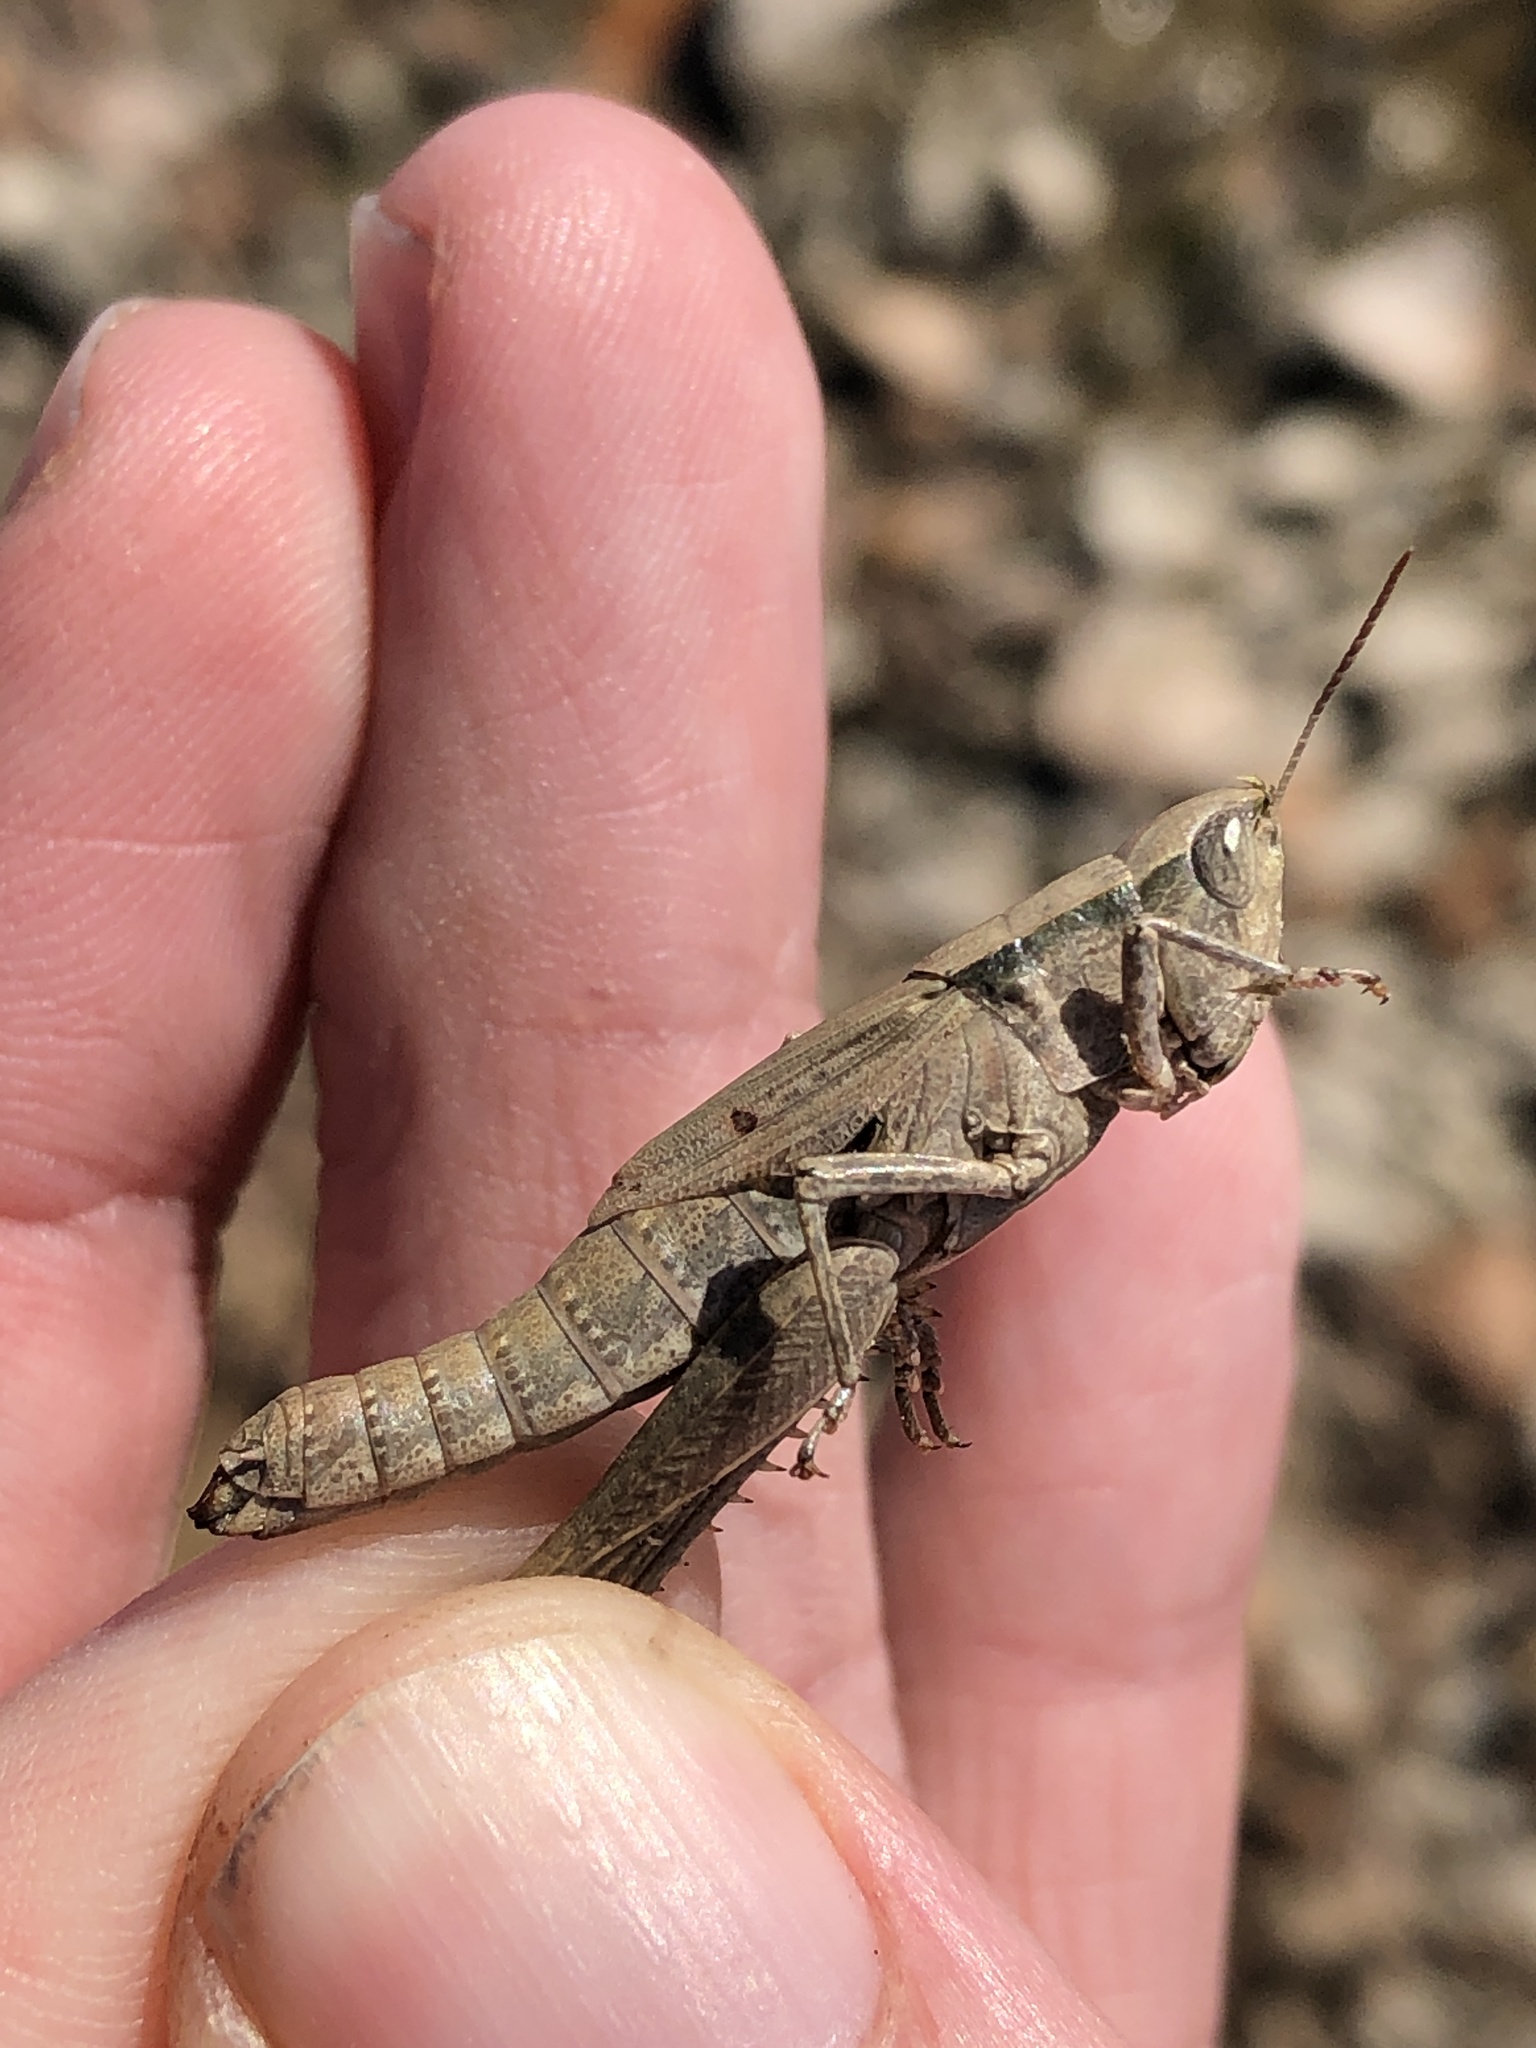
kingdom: Animalia
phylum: Arthropoda
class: Insecta
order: Orthoptera
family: Acrididae
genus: Dichromorpha
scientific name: Dichromorpha viridis
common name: Short-winged green grasshopper
